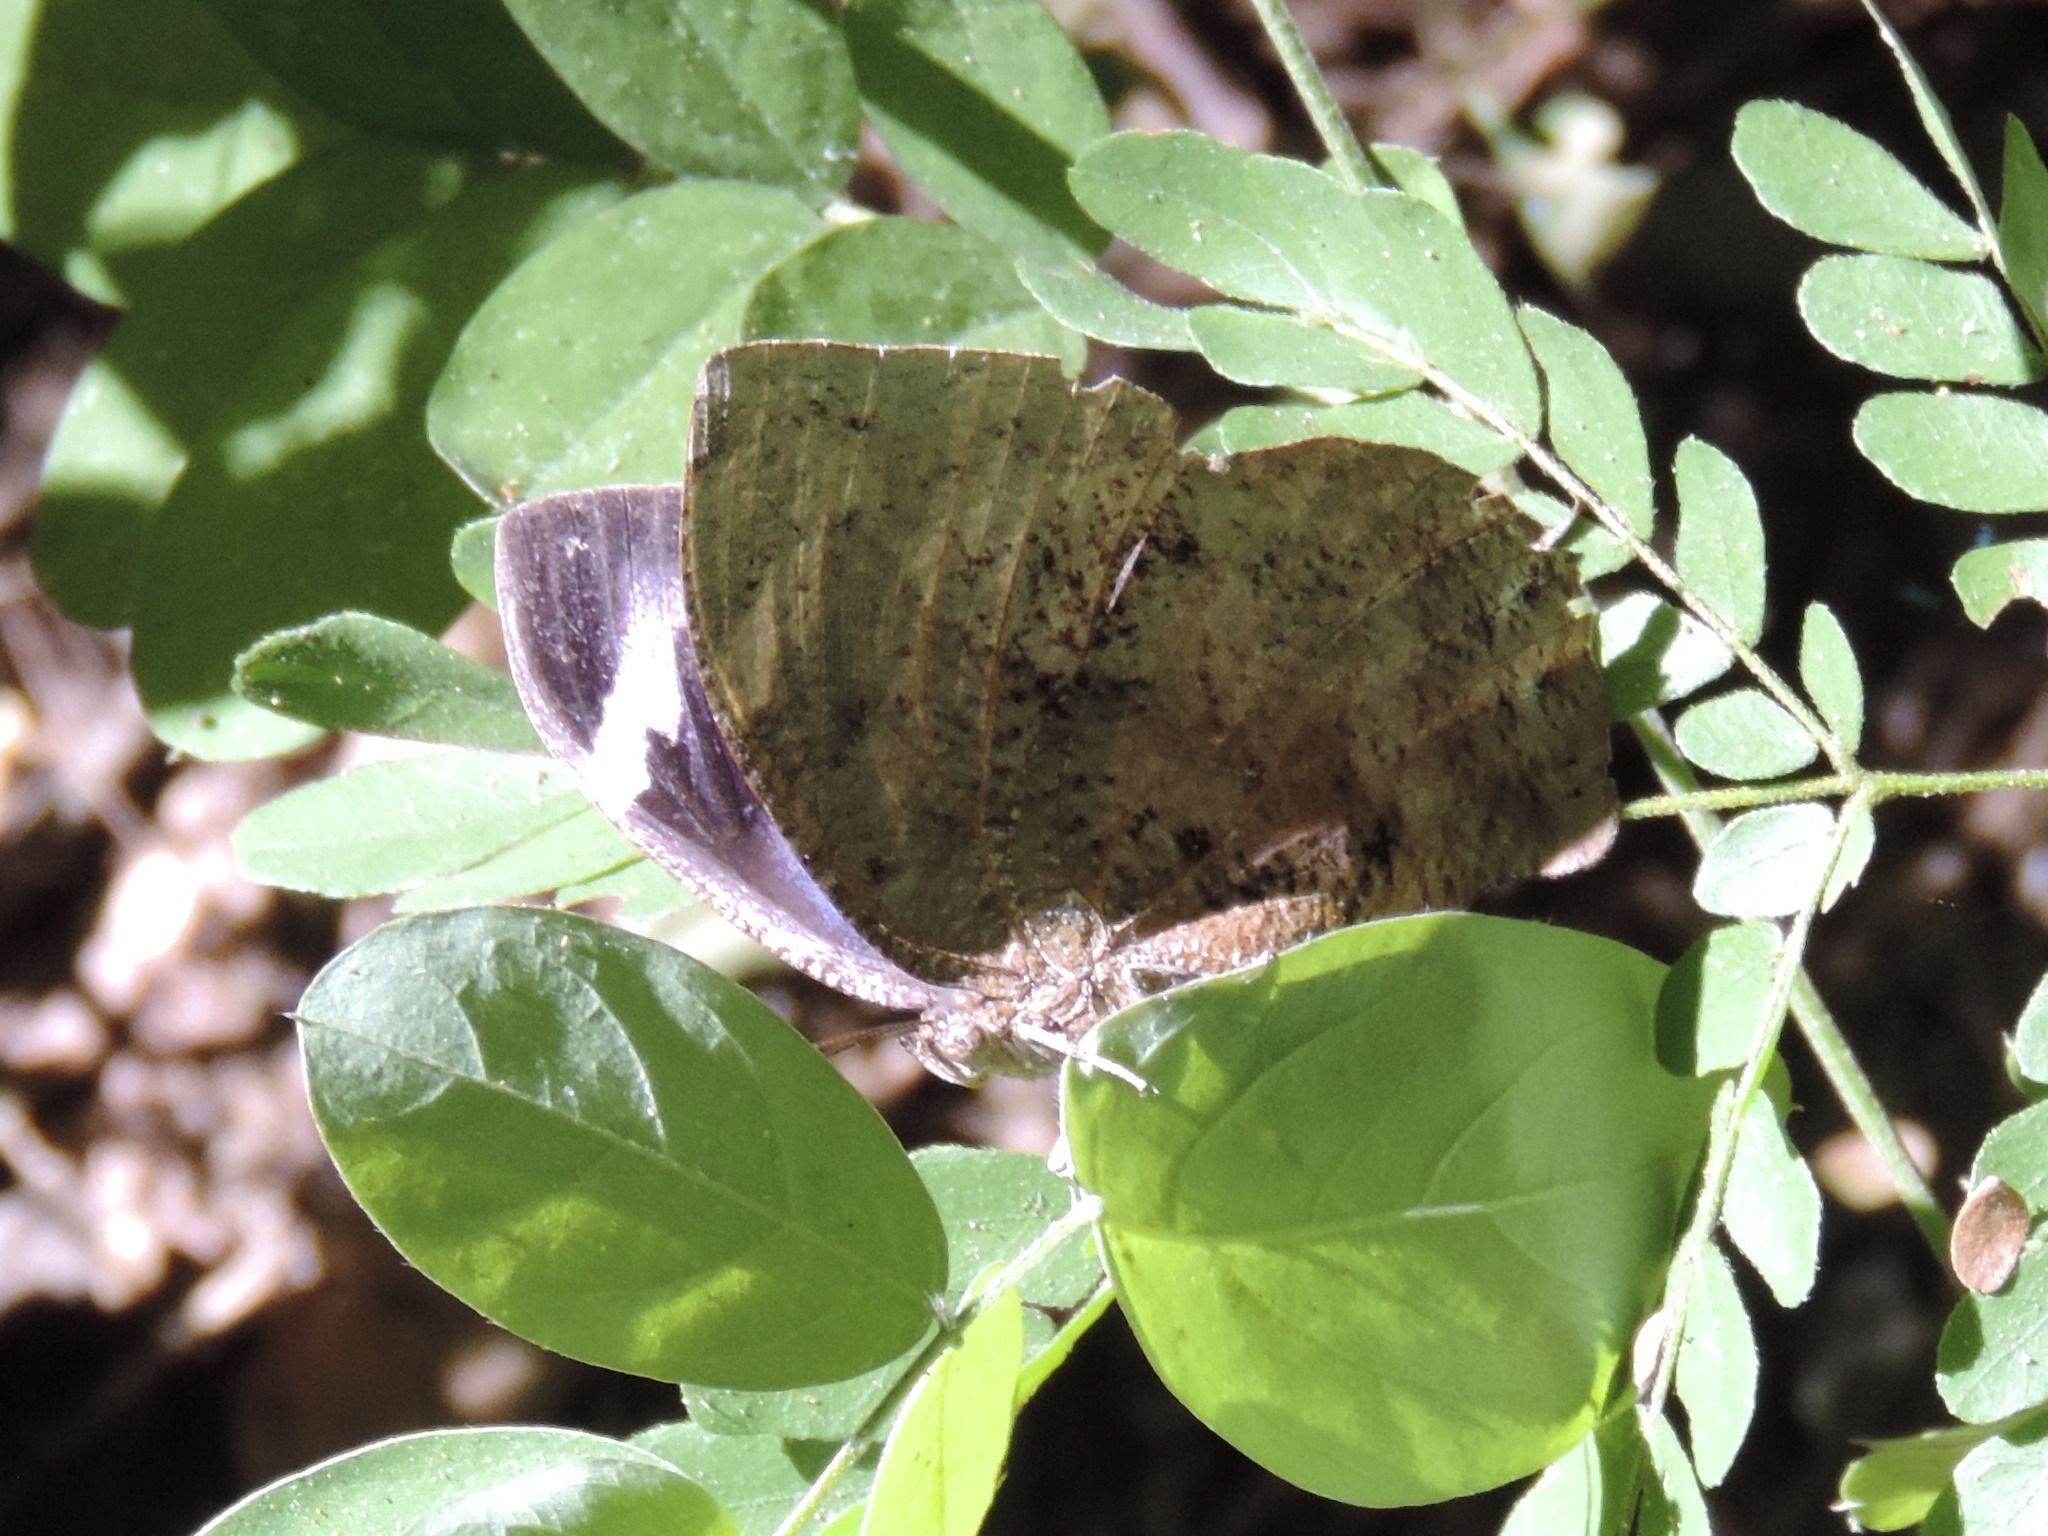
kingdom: Animalia
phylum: Arthropoda
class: Insecta
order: Lepidoptera
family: Nymphalidae
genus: Memphis
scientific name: Memphis forreri
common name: Forrer's leafwing
